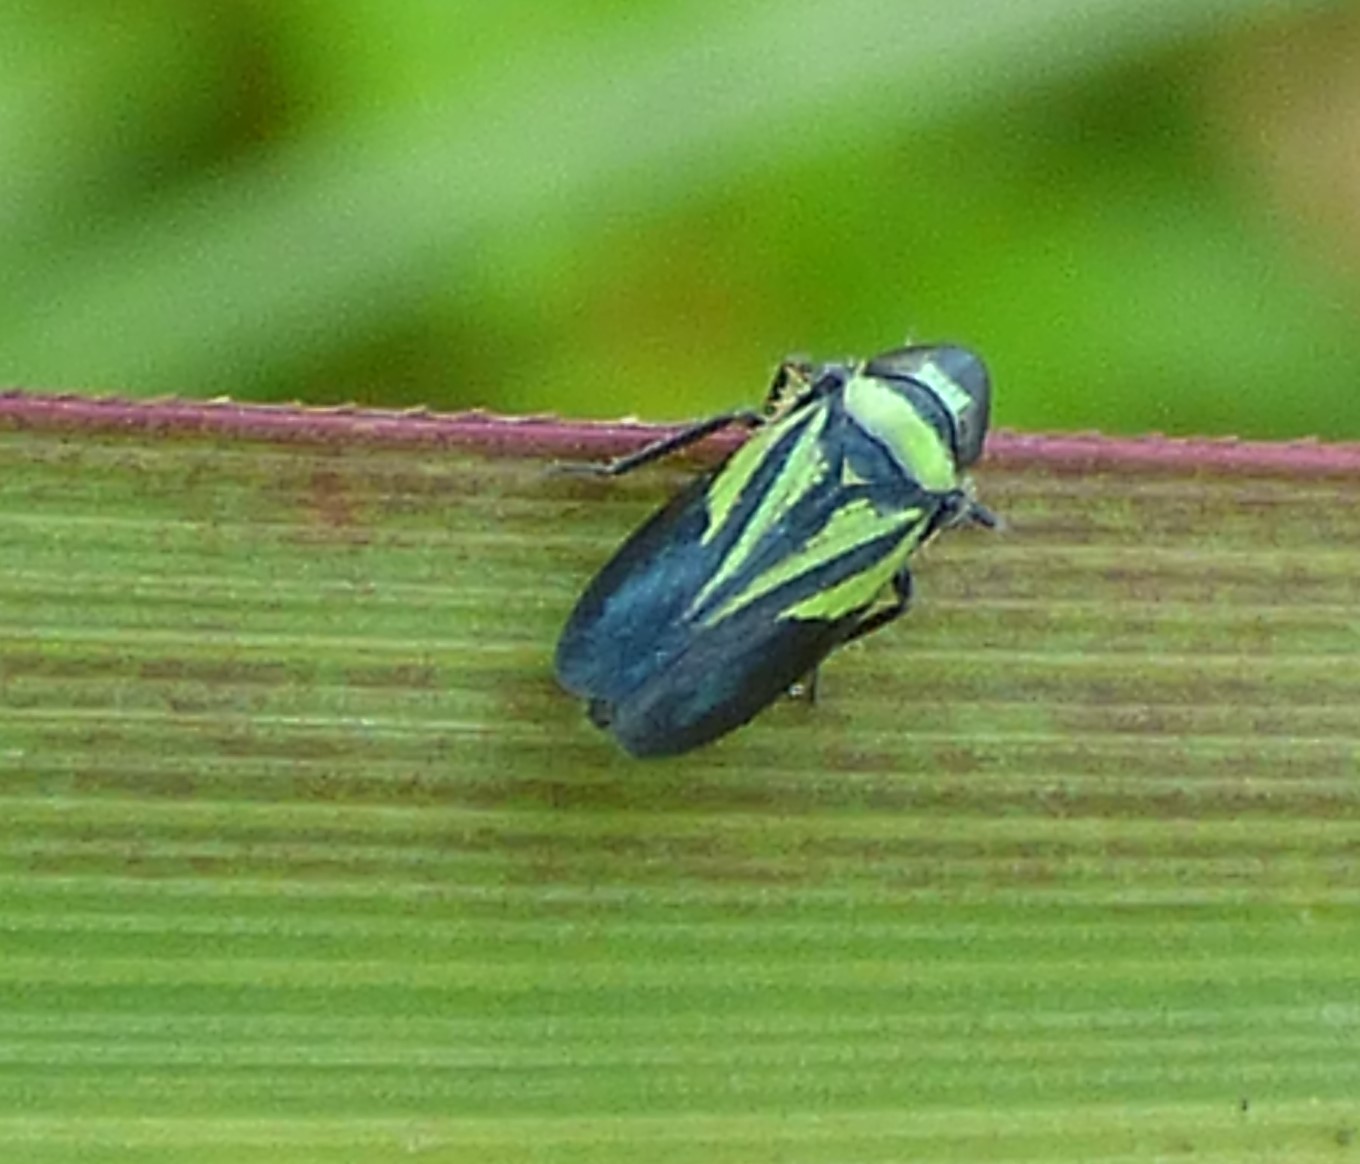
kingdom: Animalia
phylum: Arthropoda
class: Insecta
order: Hemiptera
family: Cicadellidae
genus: Stirellus
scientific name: Stirellus bicolor
